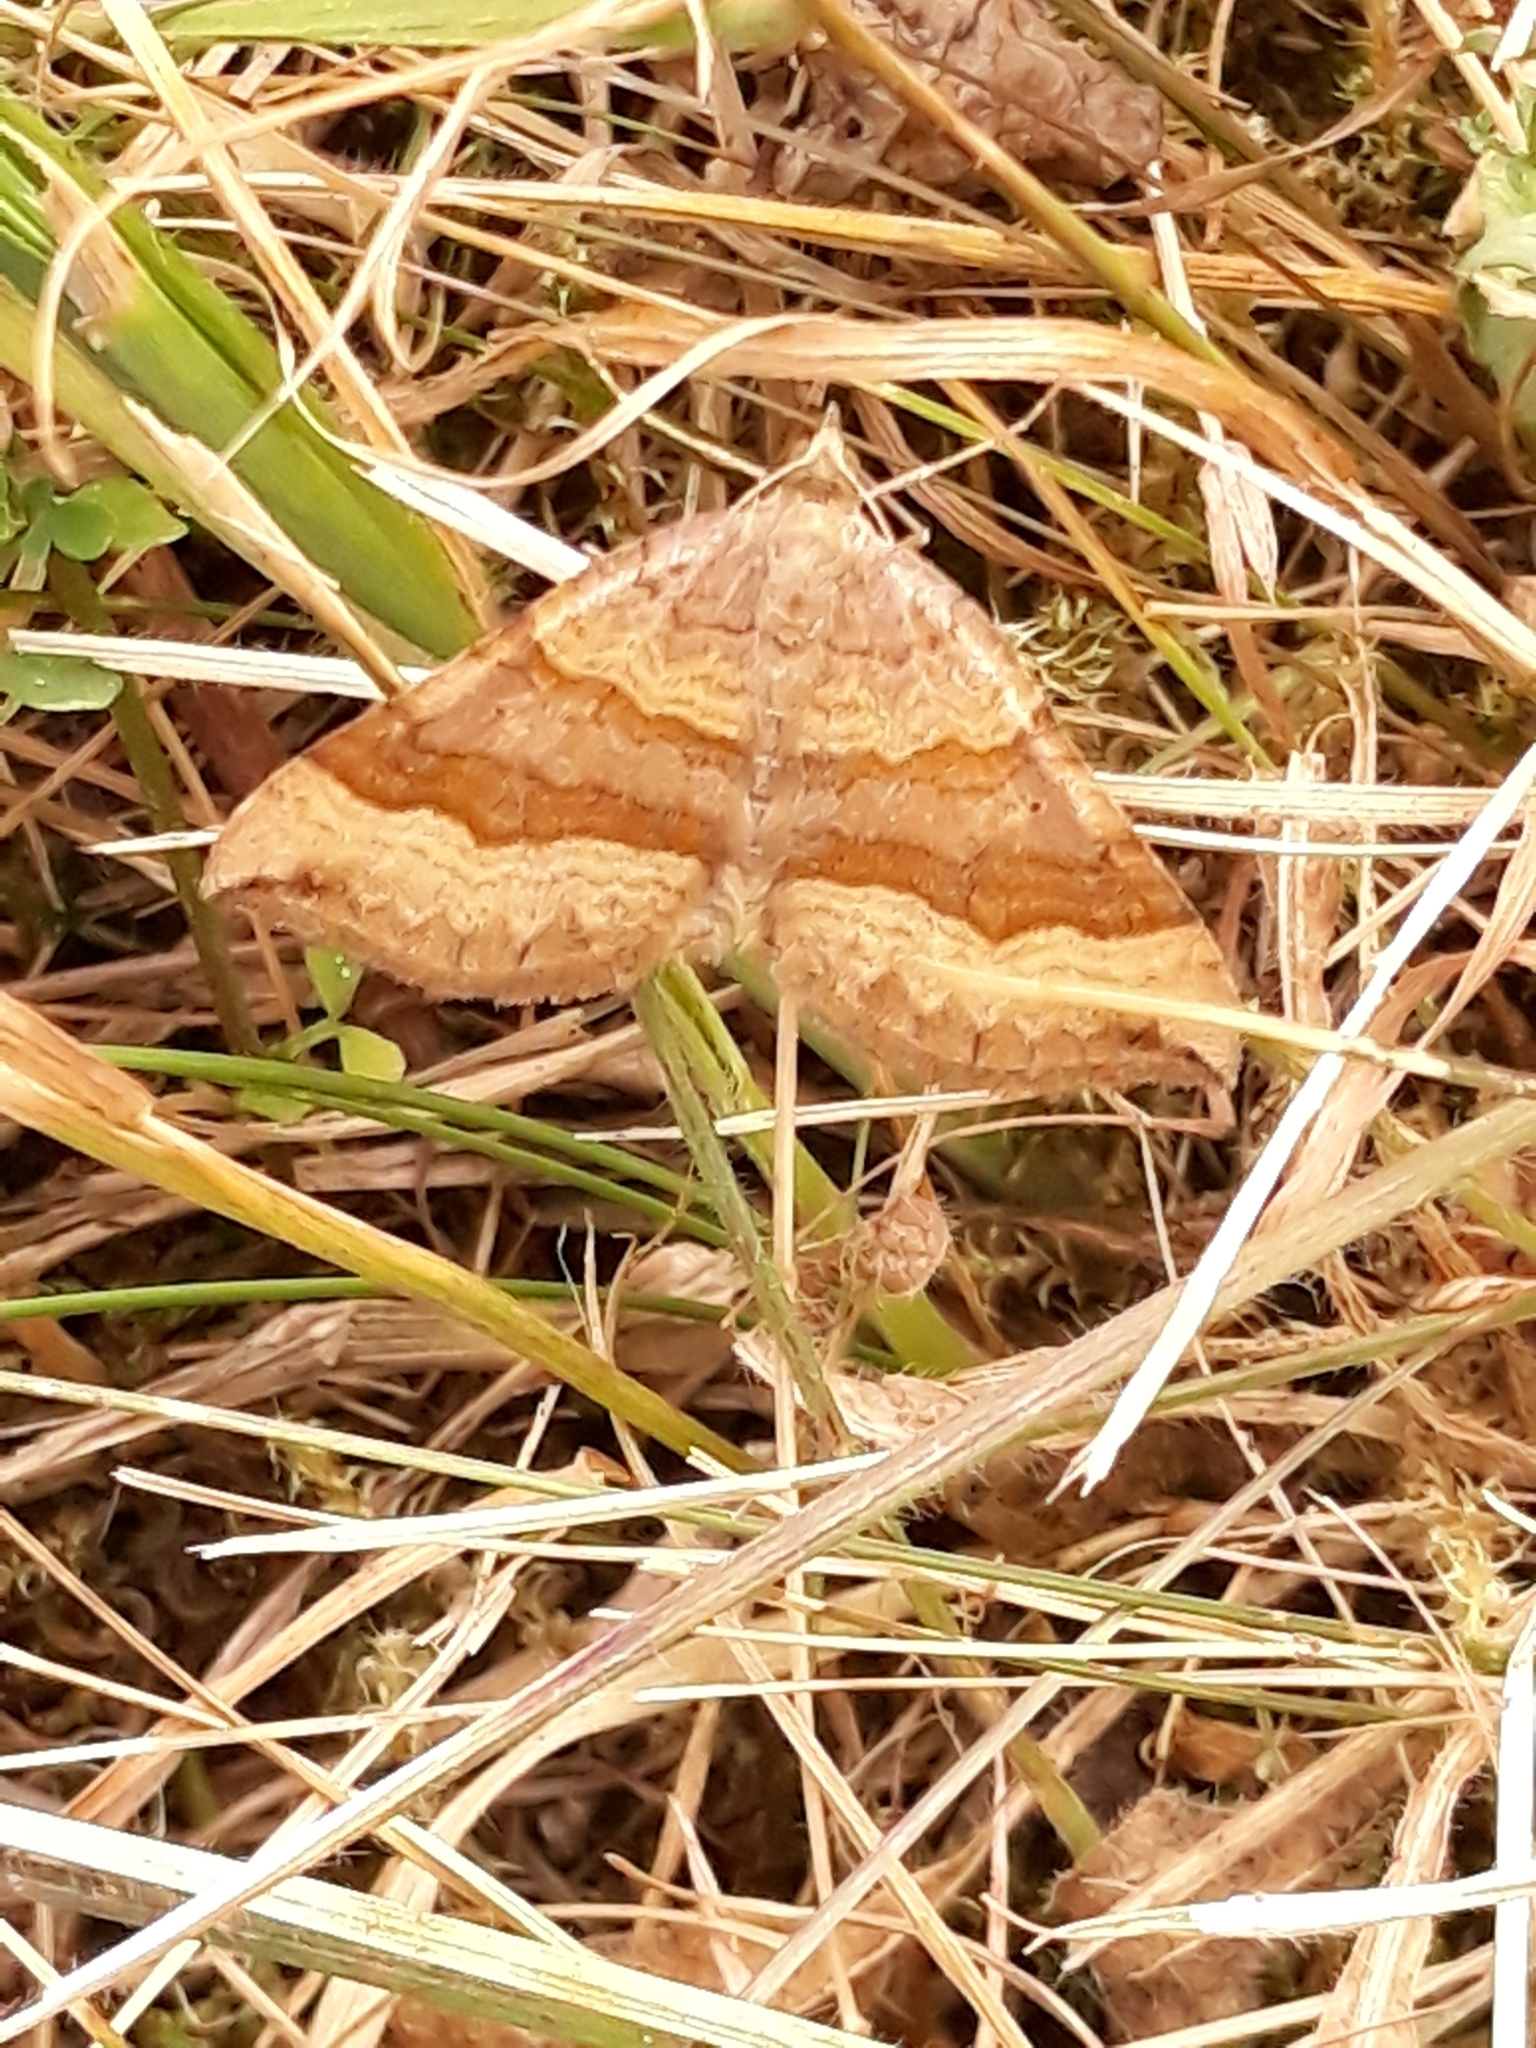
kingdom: Animalia
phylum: Arthropoda
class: Insecta
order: Lepidoptera
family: Geometridae
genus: Scotopteryx
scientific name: Scotopteryx chenopodiata
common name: Shaded broad-bar
